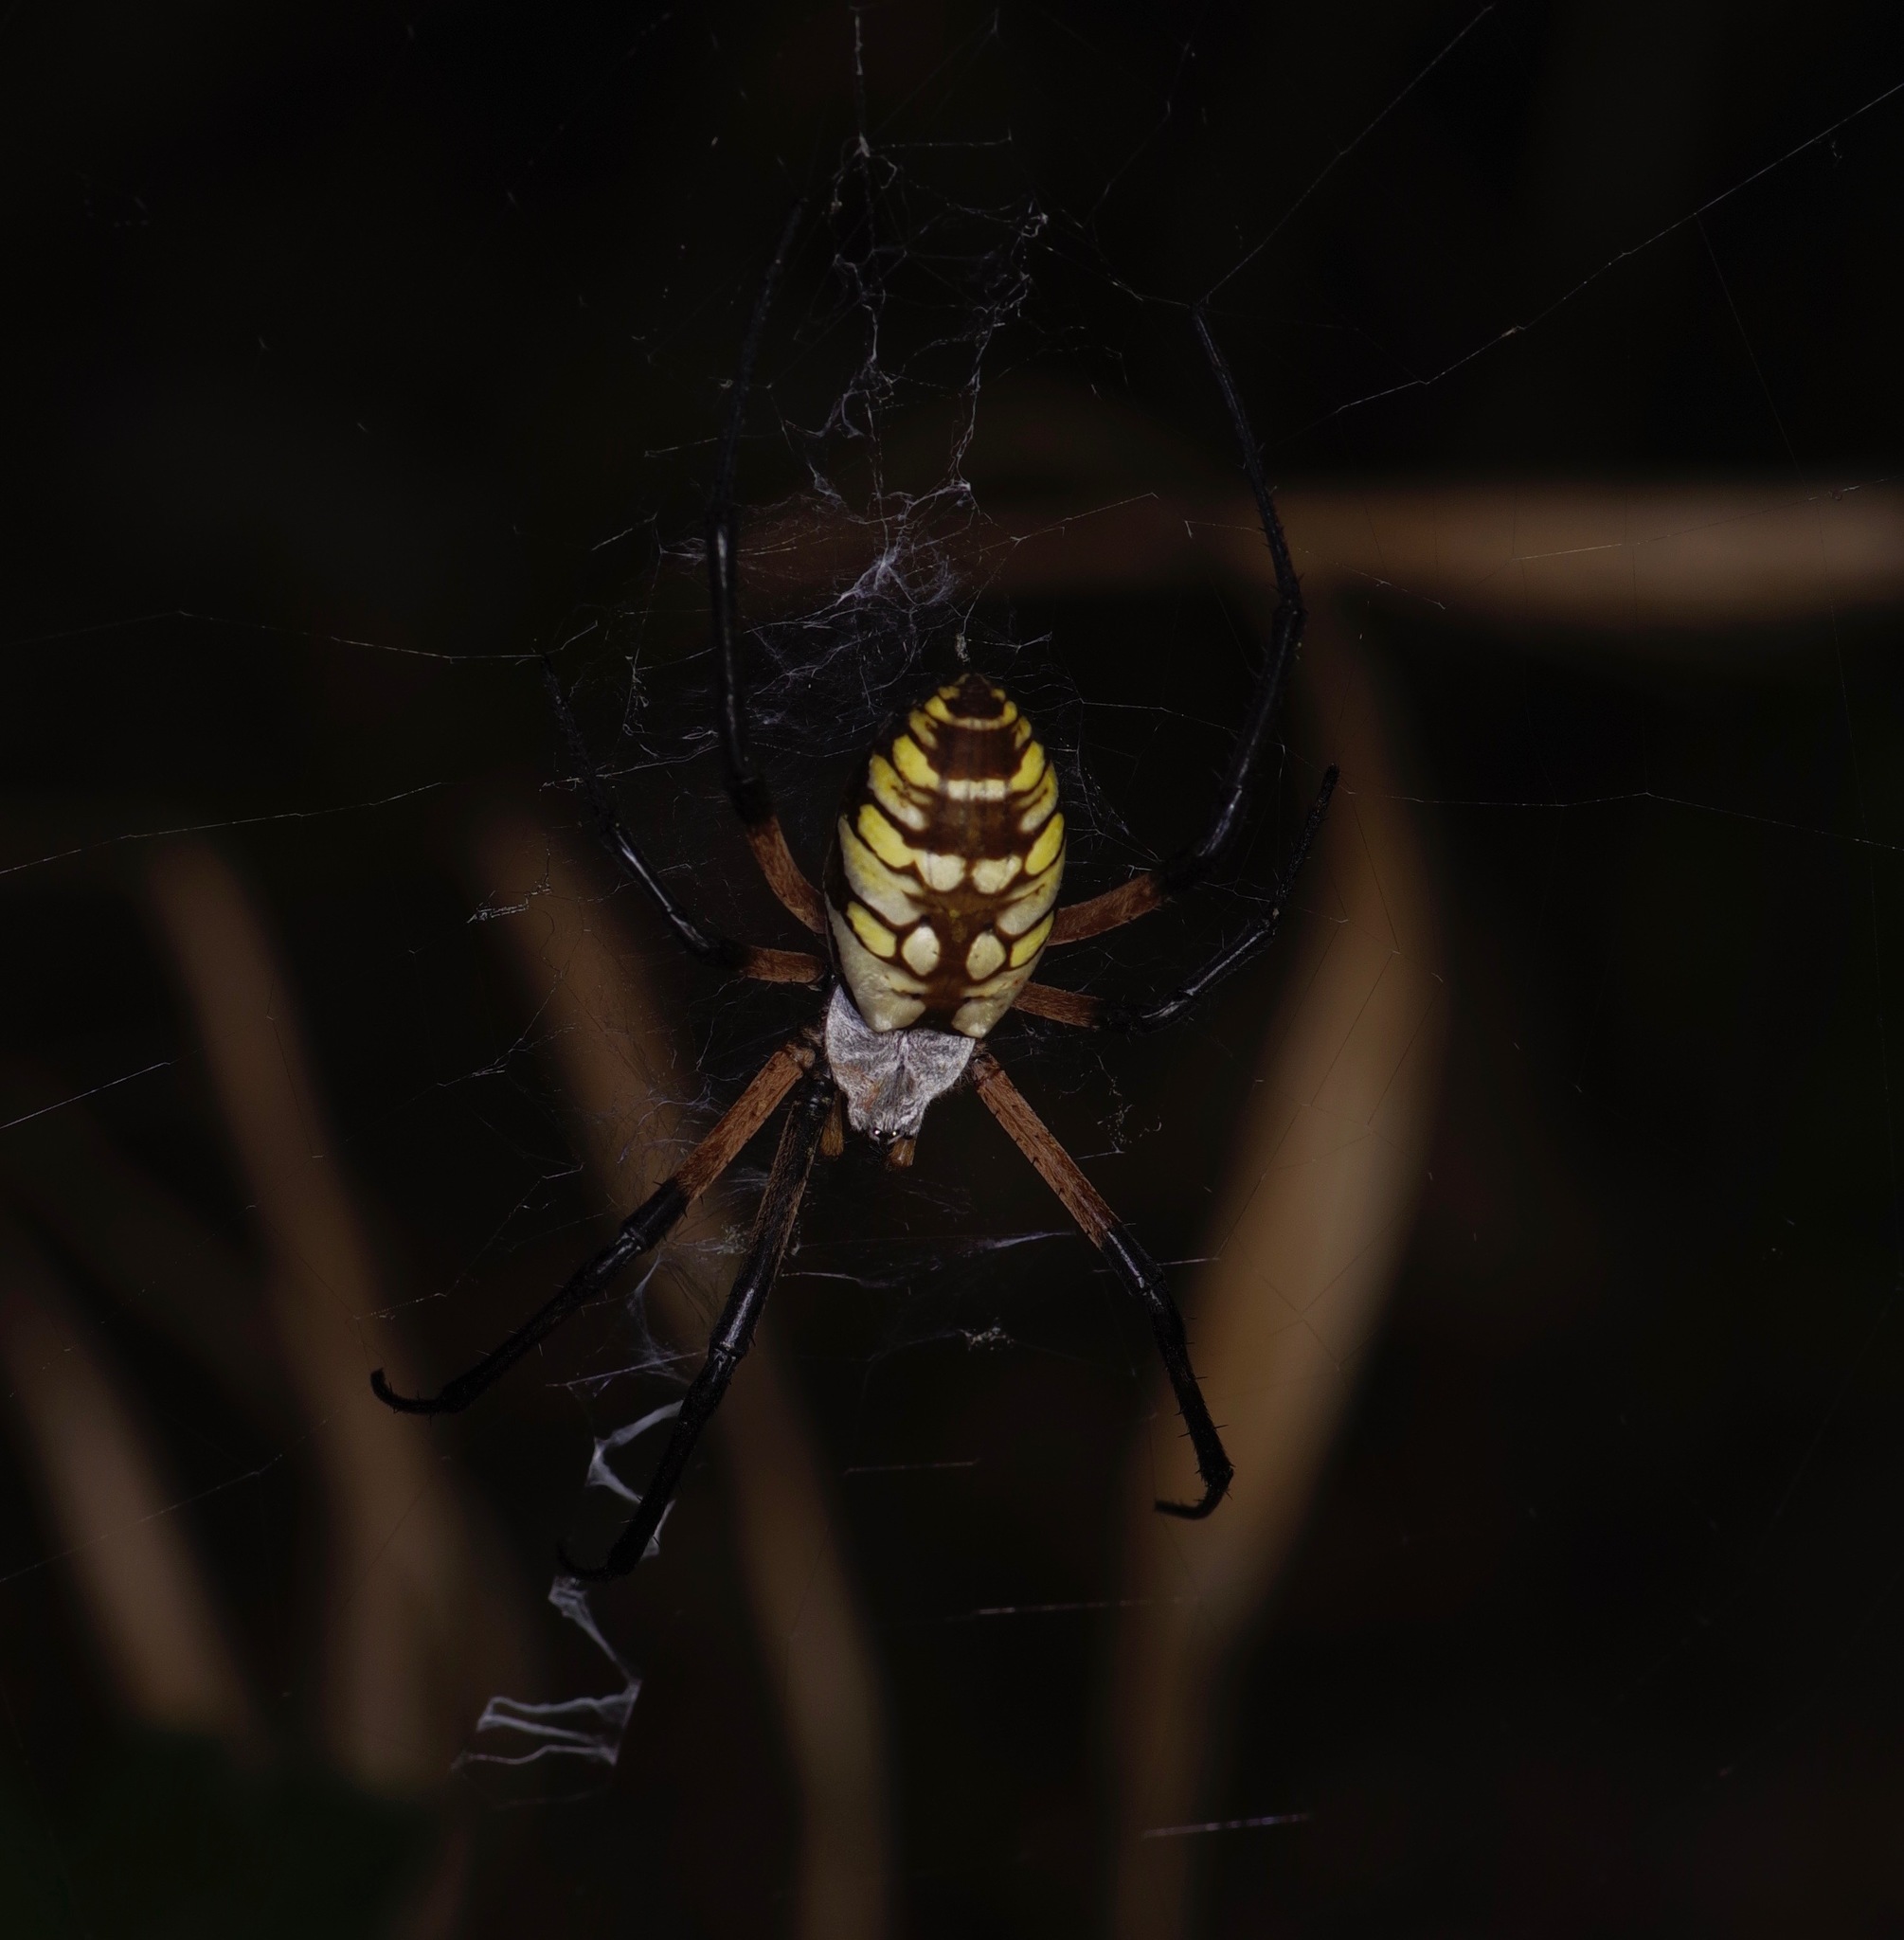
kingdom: Animalia
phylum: Arthropoda
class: Arachnida
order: Araneae
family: Araneidae
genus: Argiope
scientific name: Argiope aurantia
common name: Orb weavers
